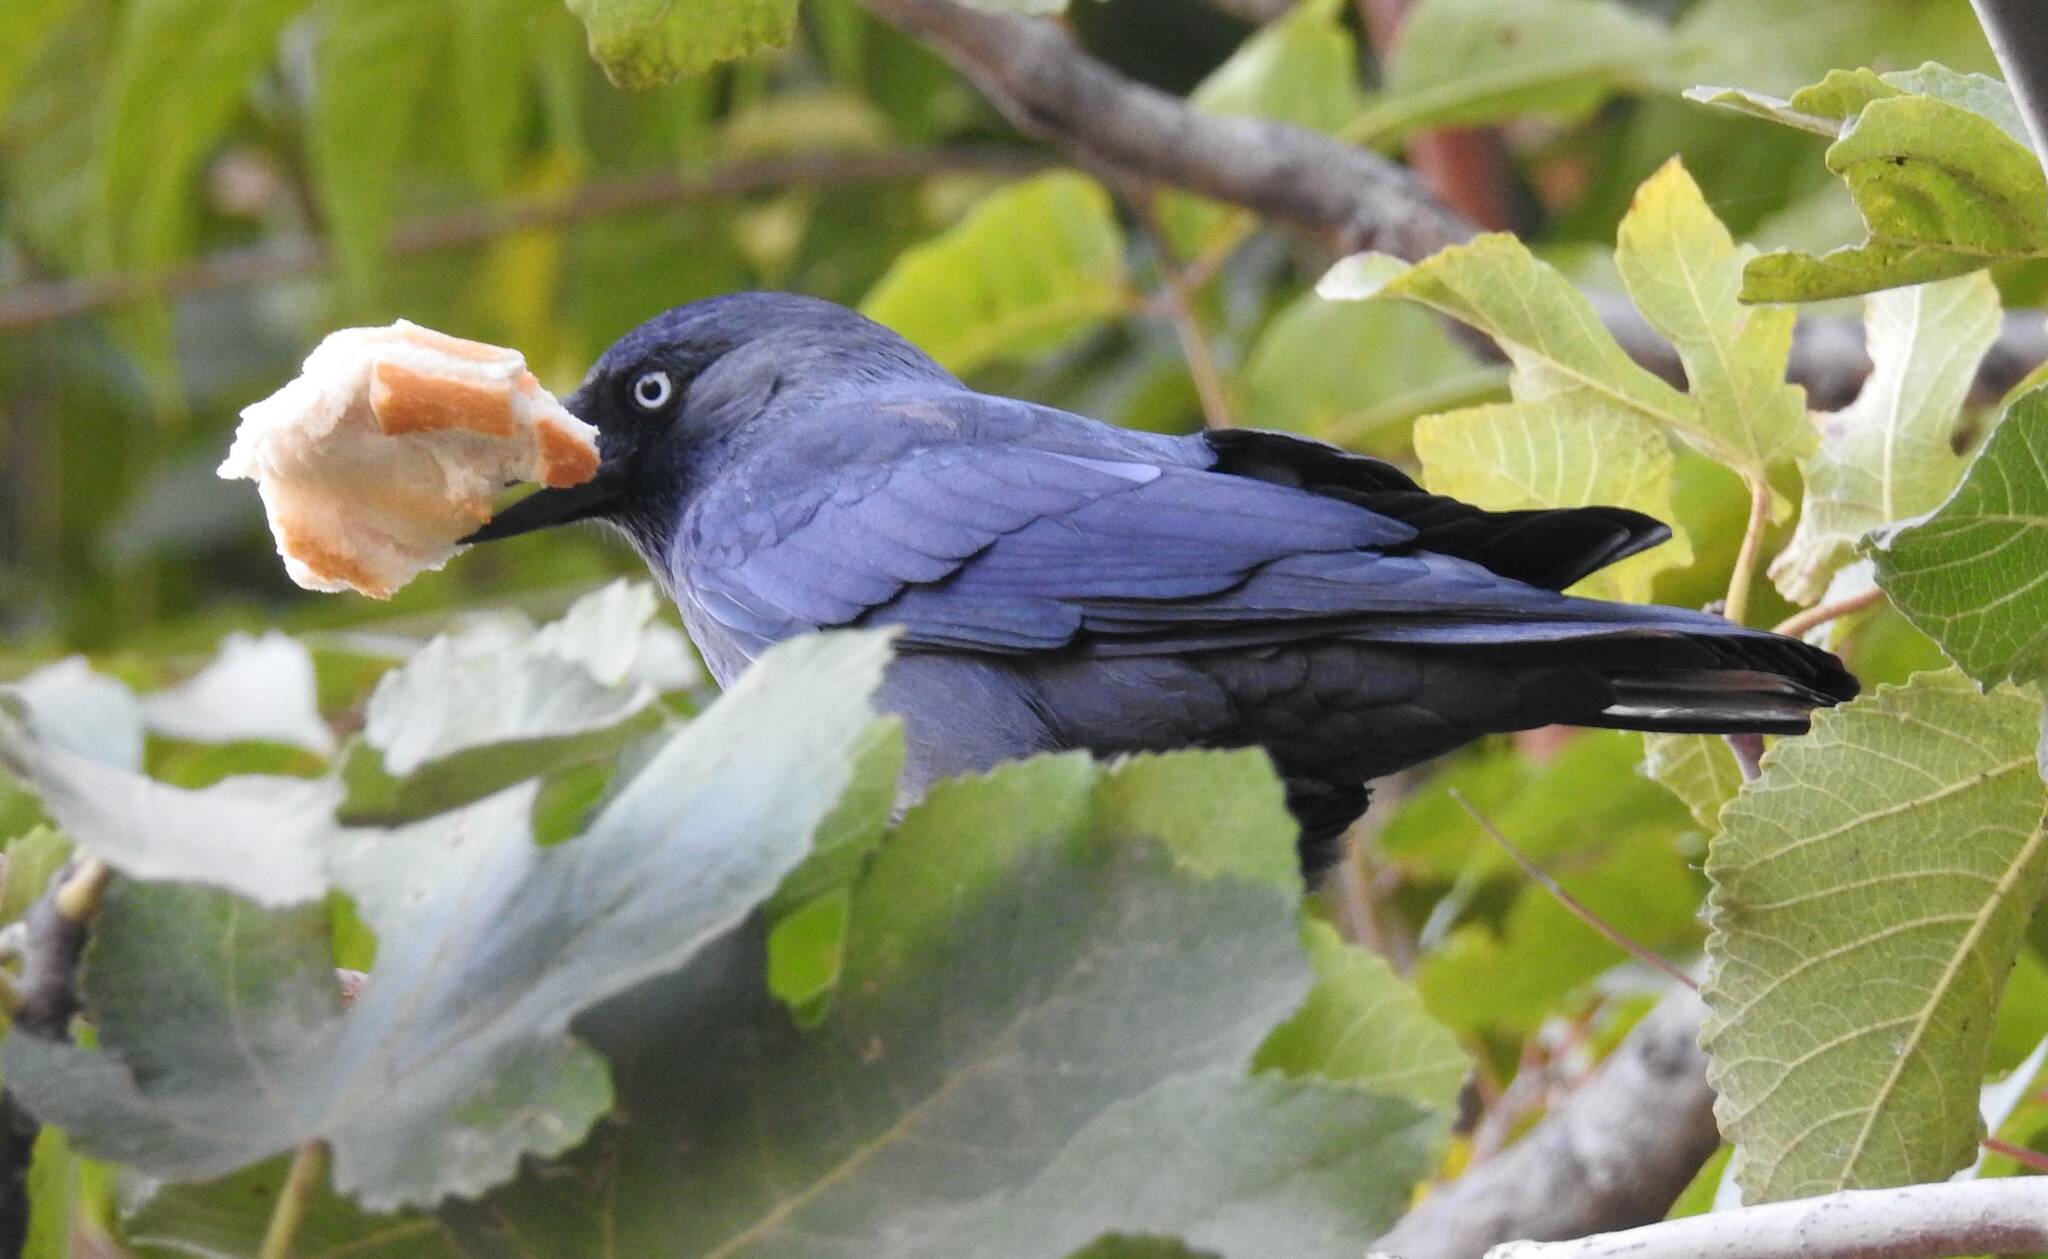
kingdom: Animalia
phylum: Chordata
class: Aves
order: Passeriformes
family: Corvidae
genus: Coloeus
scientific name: Coloeus monedula
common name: Western jackdaw
